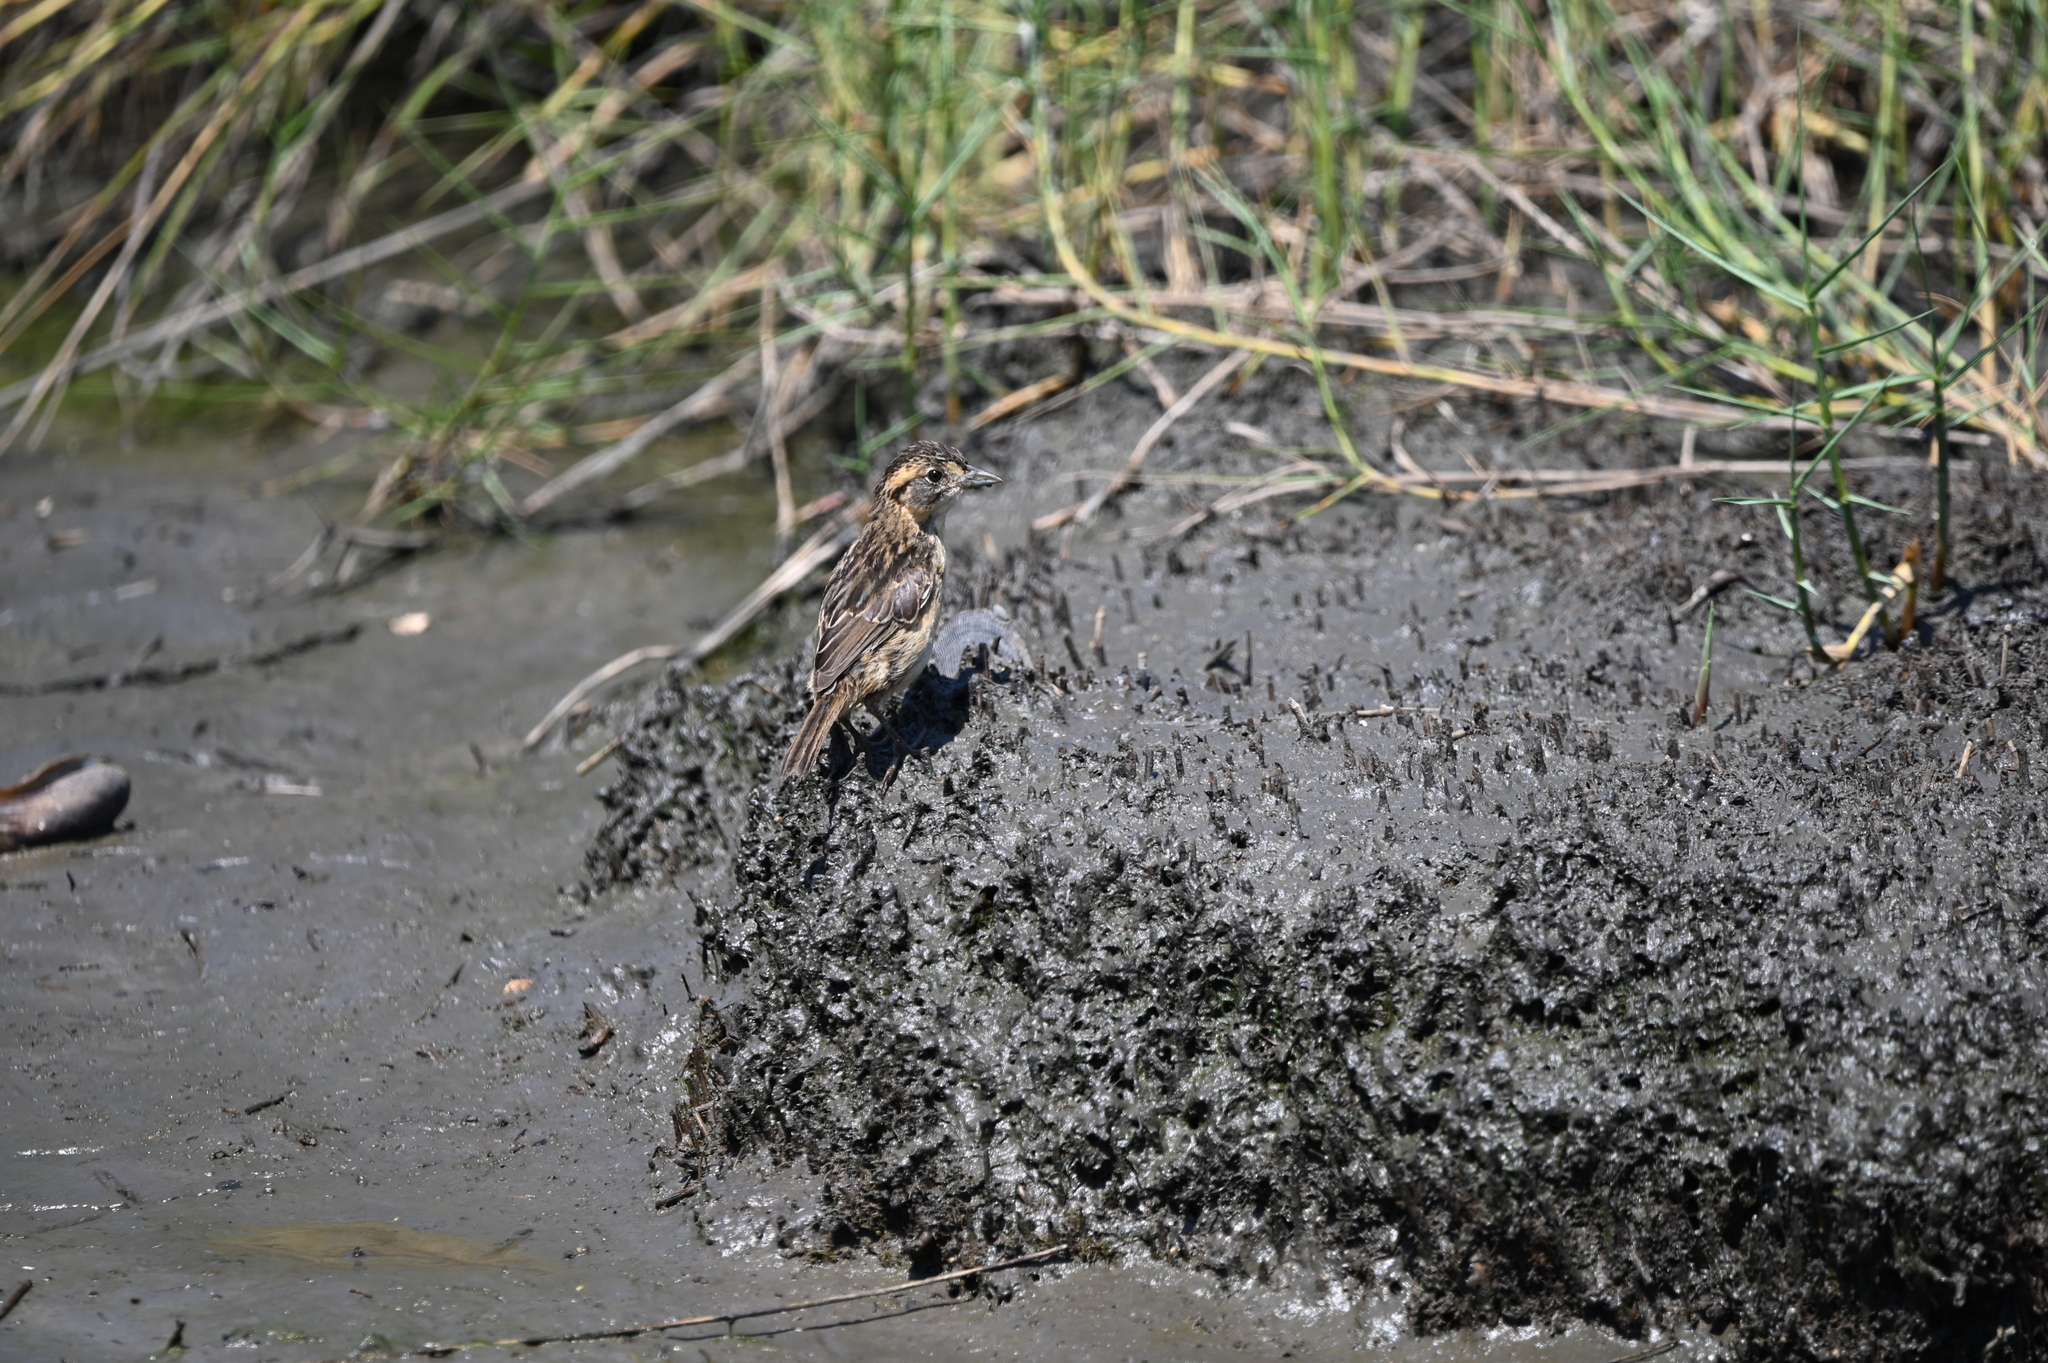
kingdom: Animalia
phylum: Chordata
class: Aves
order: Passeriformes
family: Passerellidae
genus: Ammospiza
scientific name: Ammospiza maritima
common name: Seaside sparrow
